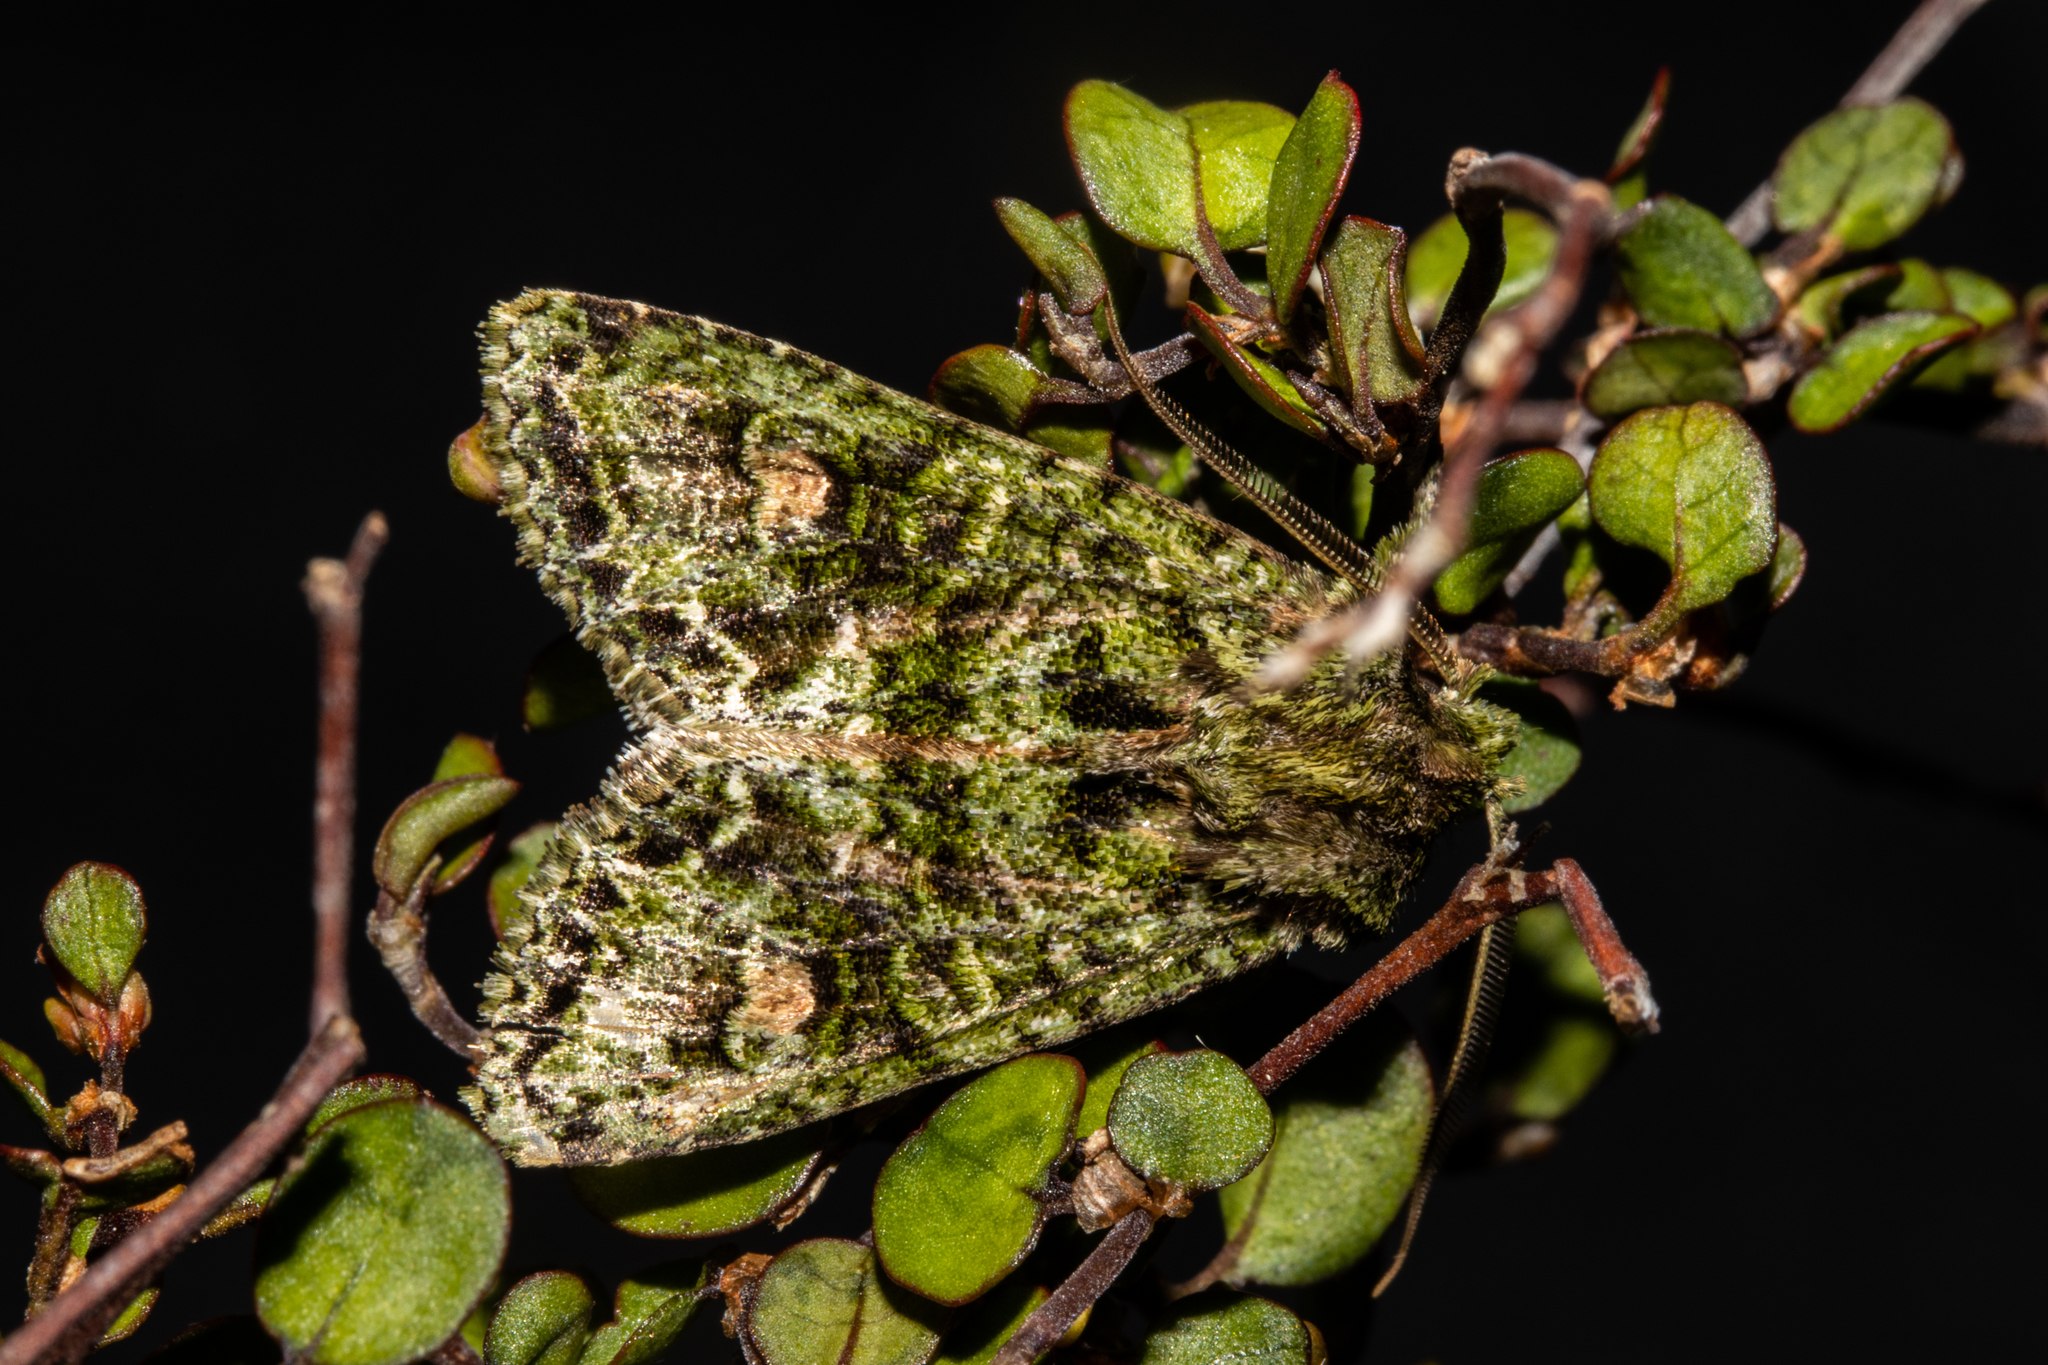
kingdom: Animalia
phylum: Arthropoda
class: Insecta
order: Lepidoptera
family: Noctuidae
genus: Ichneutica
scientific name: Ichneutica
